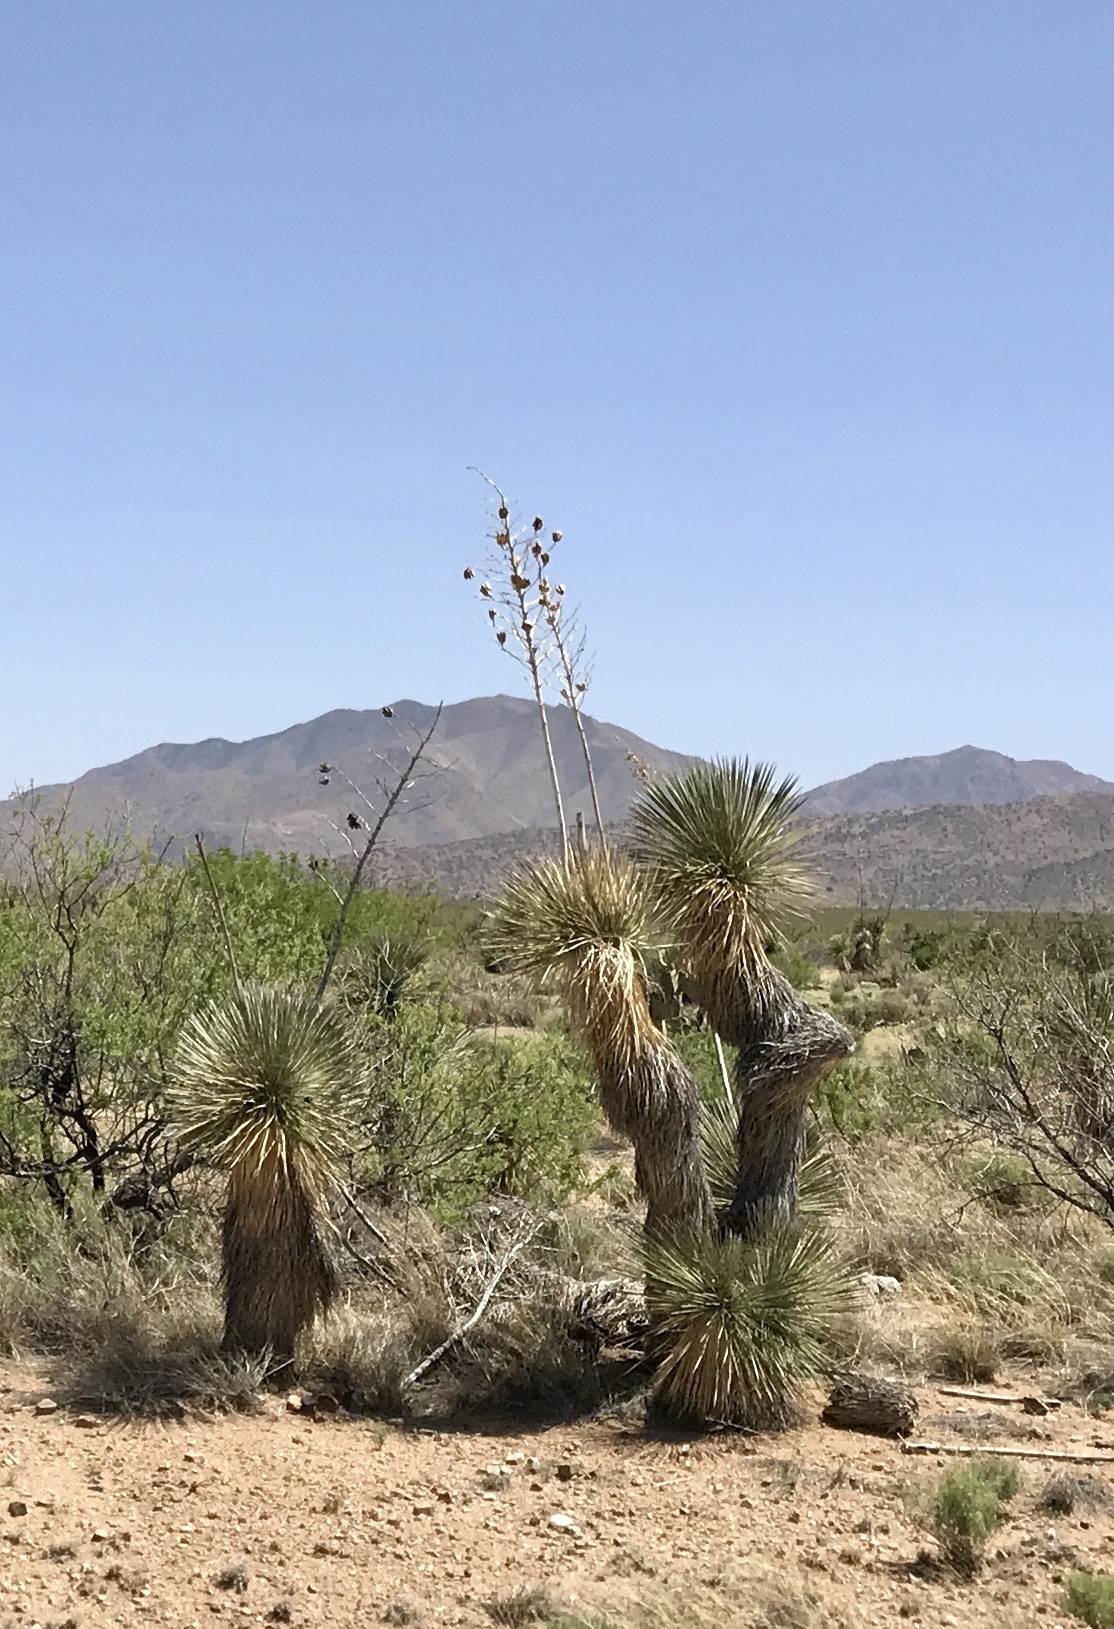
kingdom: Plantae
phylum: Tracheophyta
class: Liliopsida
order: Asparagales
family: Asparagaceae
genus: Yucca
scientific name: Yucca elata
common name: Palmella
